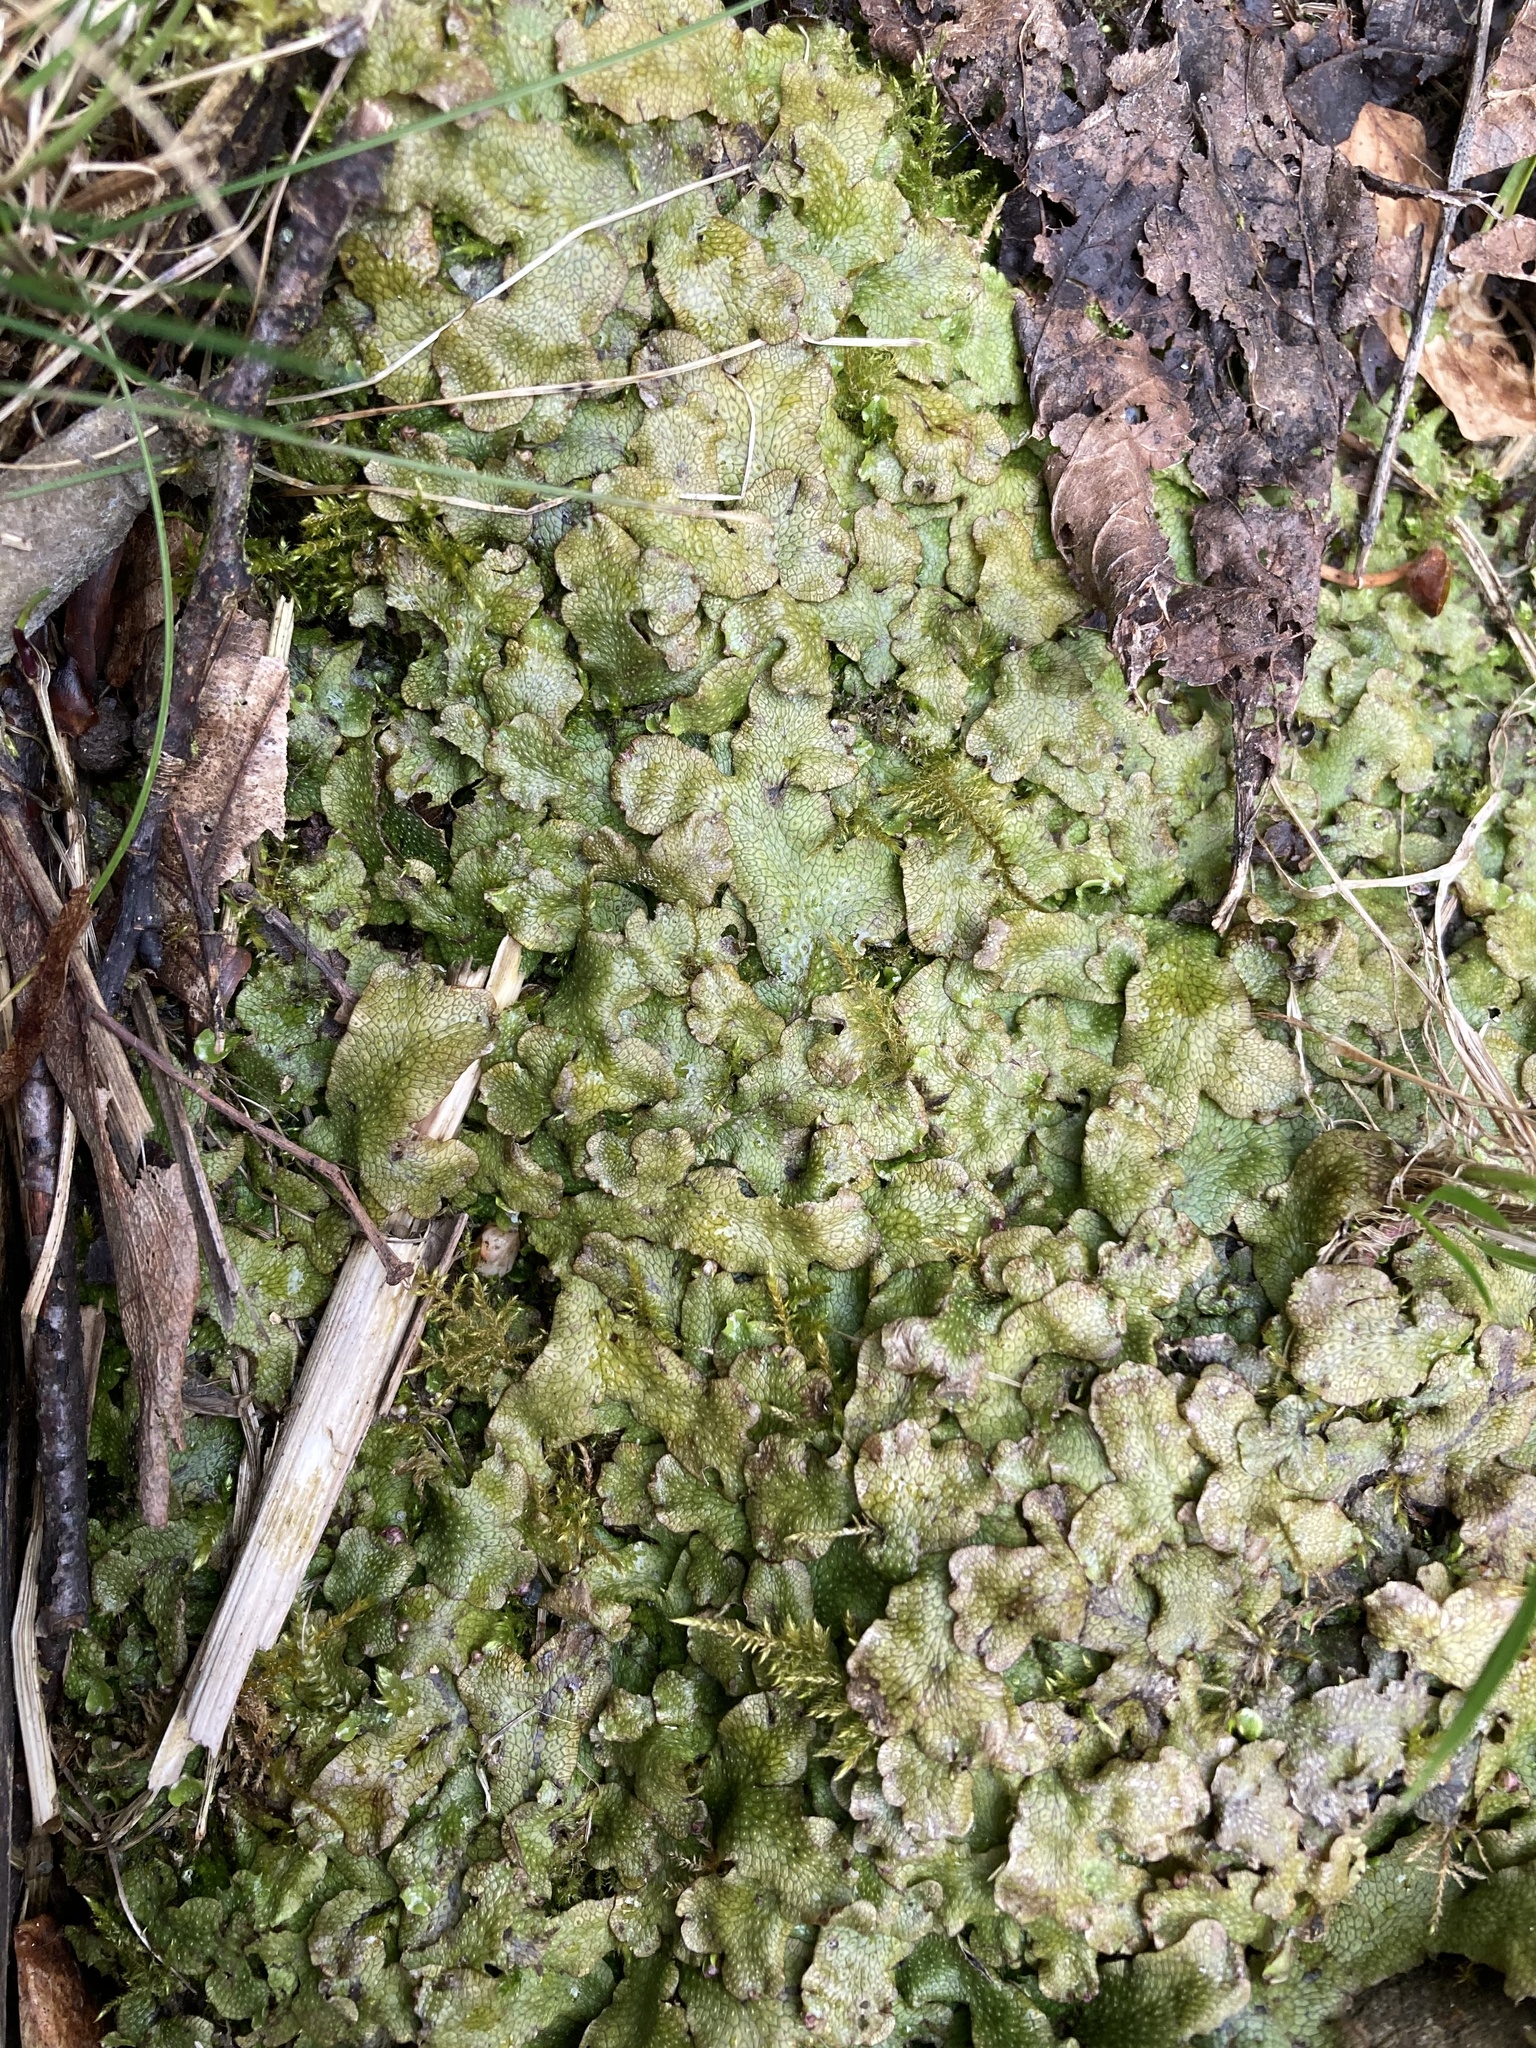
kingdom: Plantae
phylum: Marchantiophyta
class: Marchantiopsida
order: Marchantiales
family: Conocephalaceae
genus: Conocephalum
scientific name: Conocephalum salebrosum
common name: Cat-tongue liverwort
